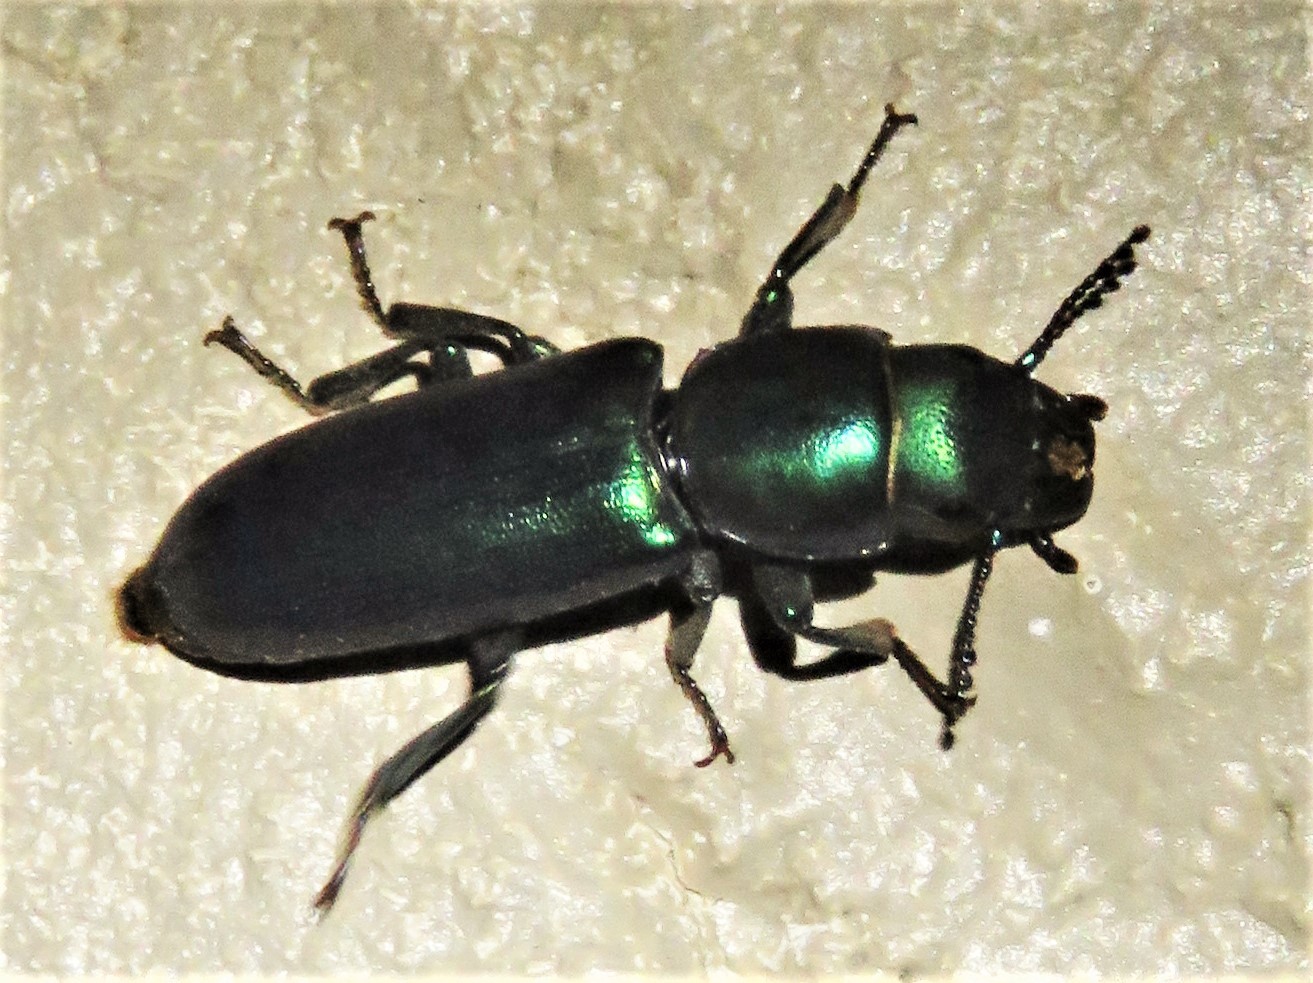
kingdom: Animalia
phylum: Arthropoda
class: Insecta
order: Coleoptera
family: Trogossitidae
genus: Temnochila
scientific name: Temnochila virescens
